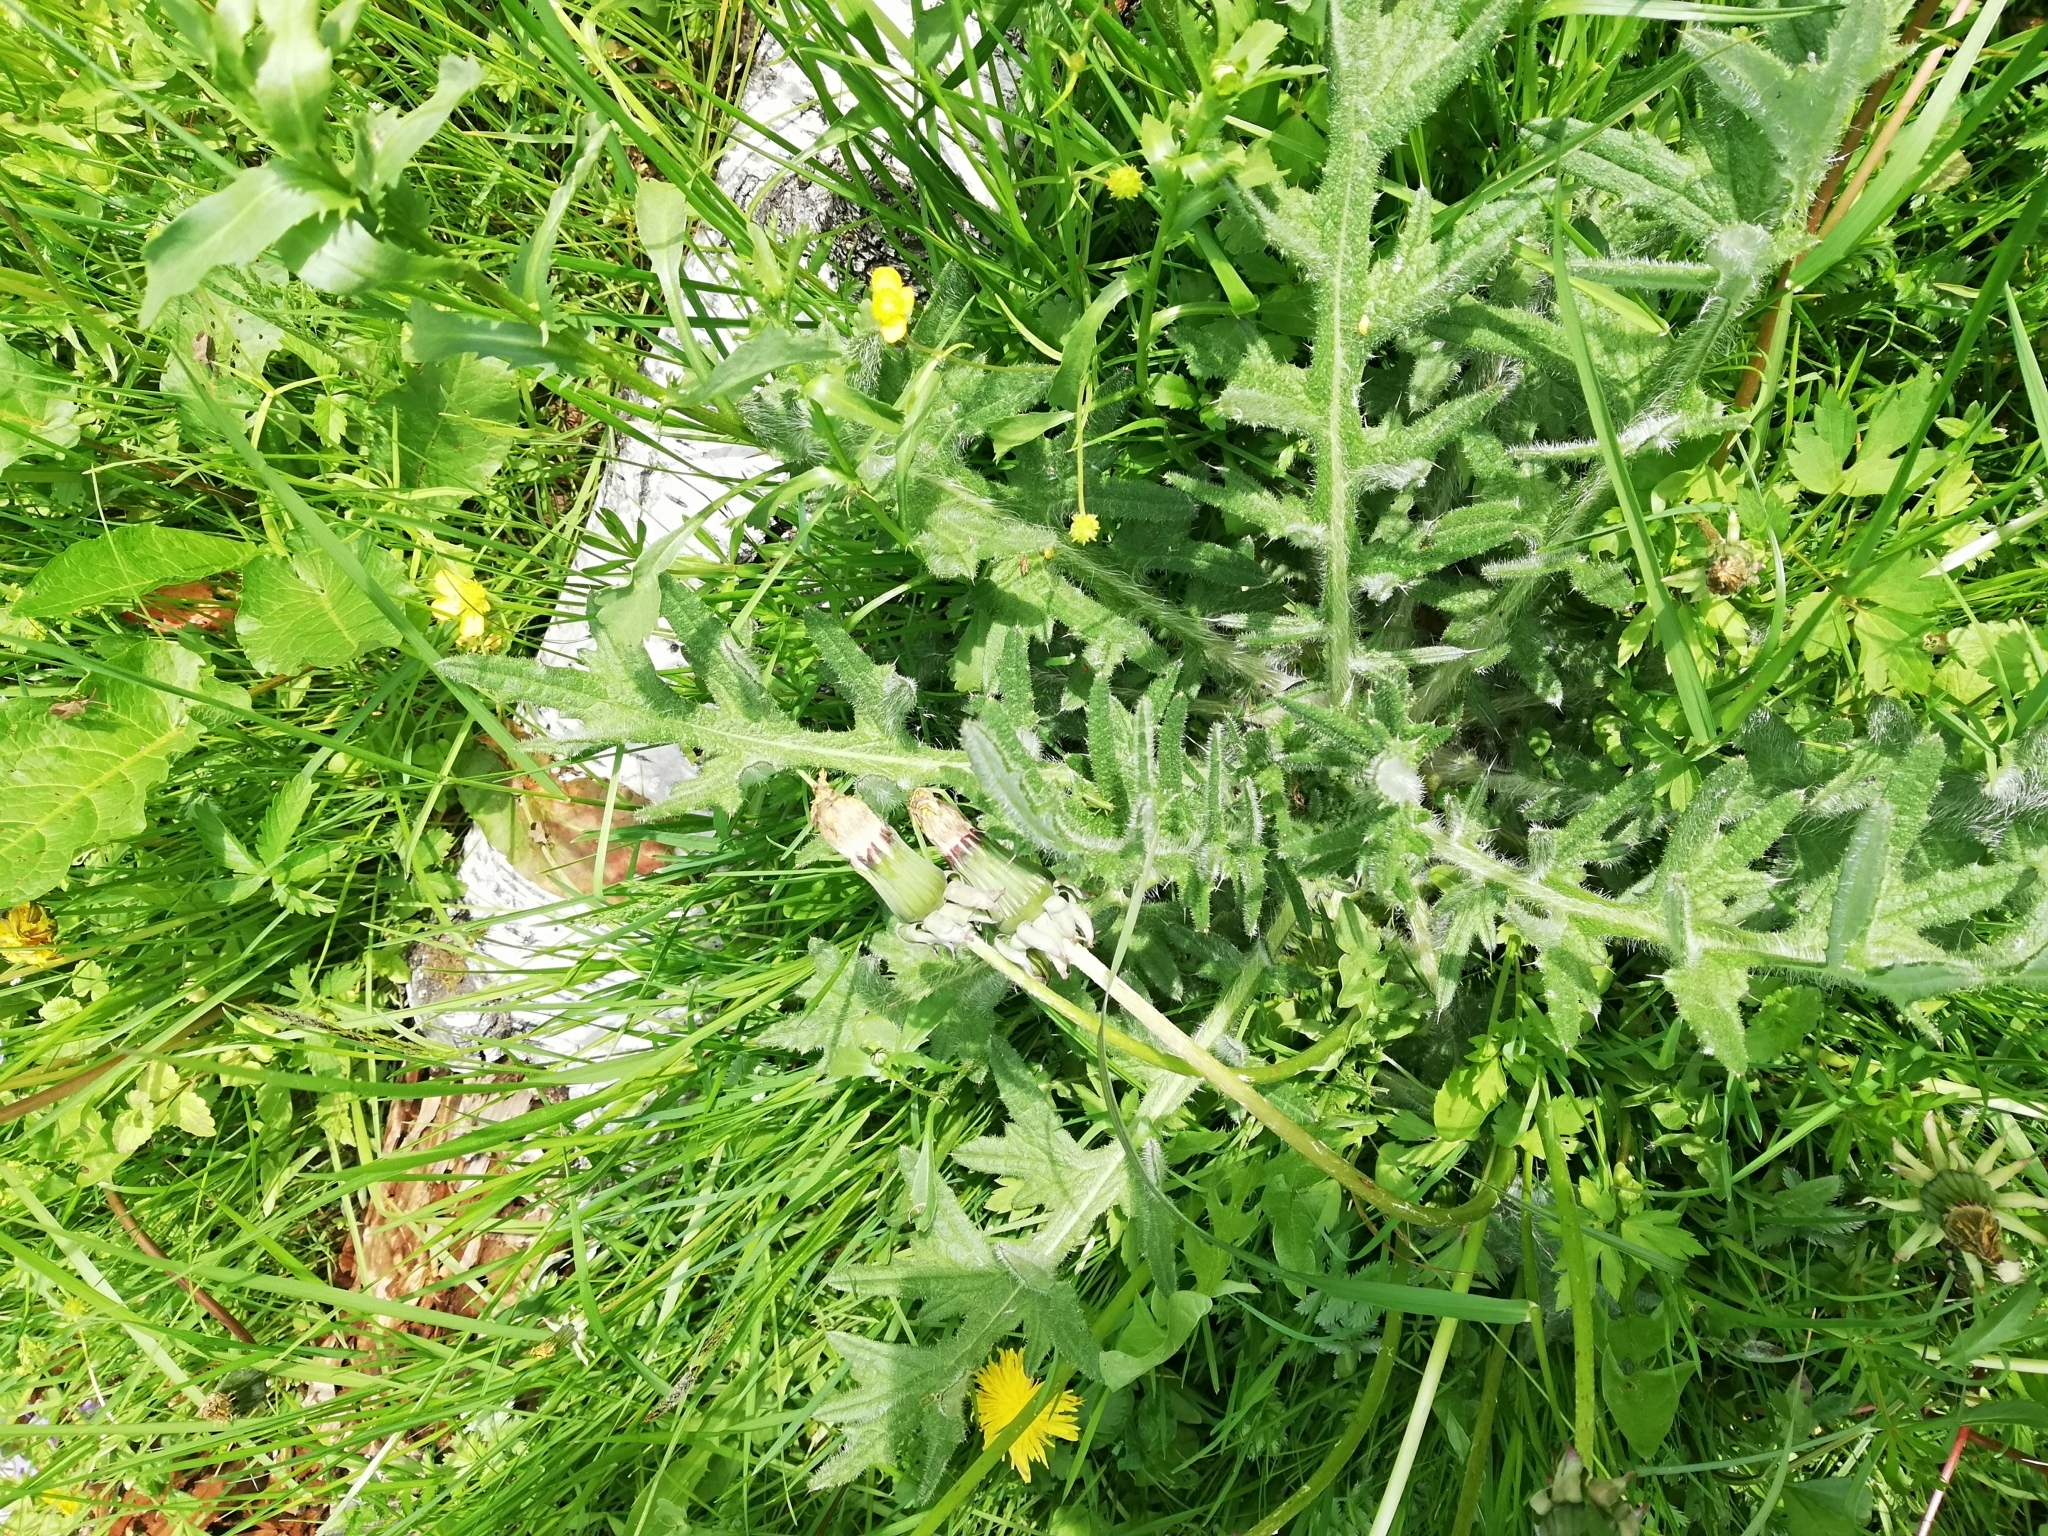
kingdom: Plantae
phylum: Tracheophyta
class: Magnoliopsida
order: Asterales
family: Asteraceae
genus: Cirsium
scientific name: Cirsium vulgare
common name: Bull thistle
